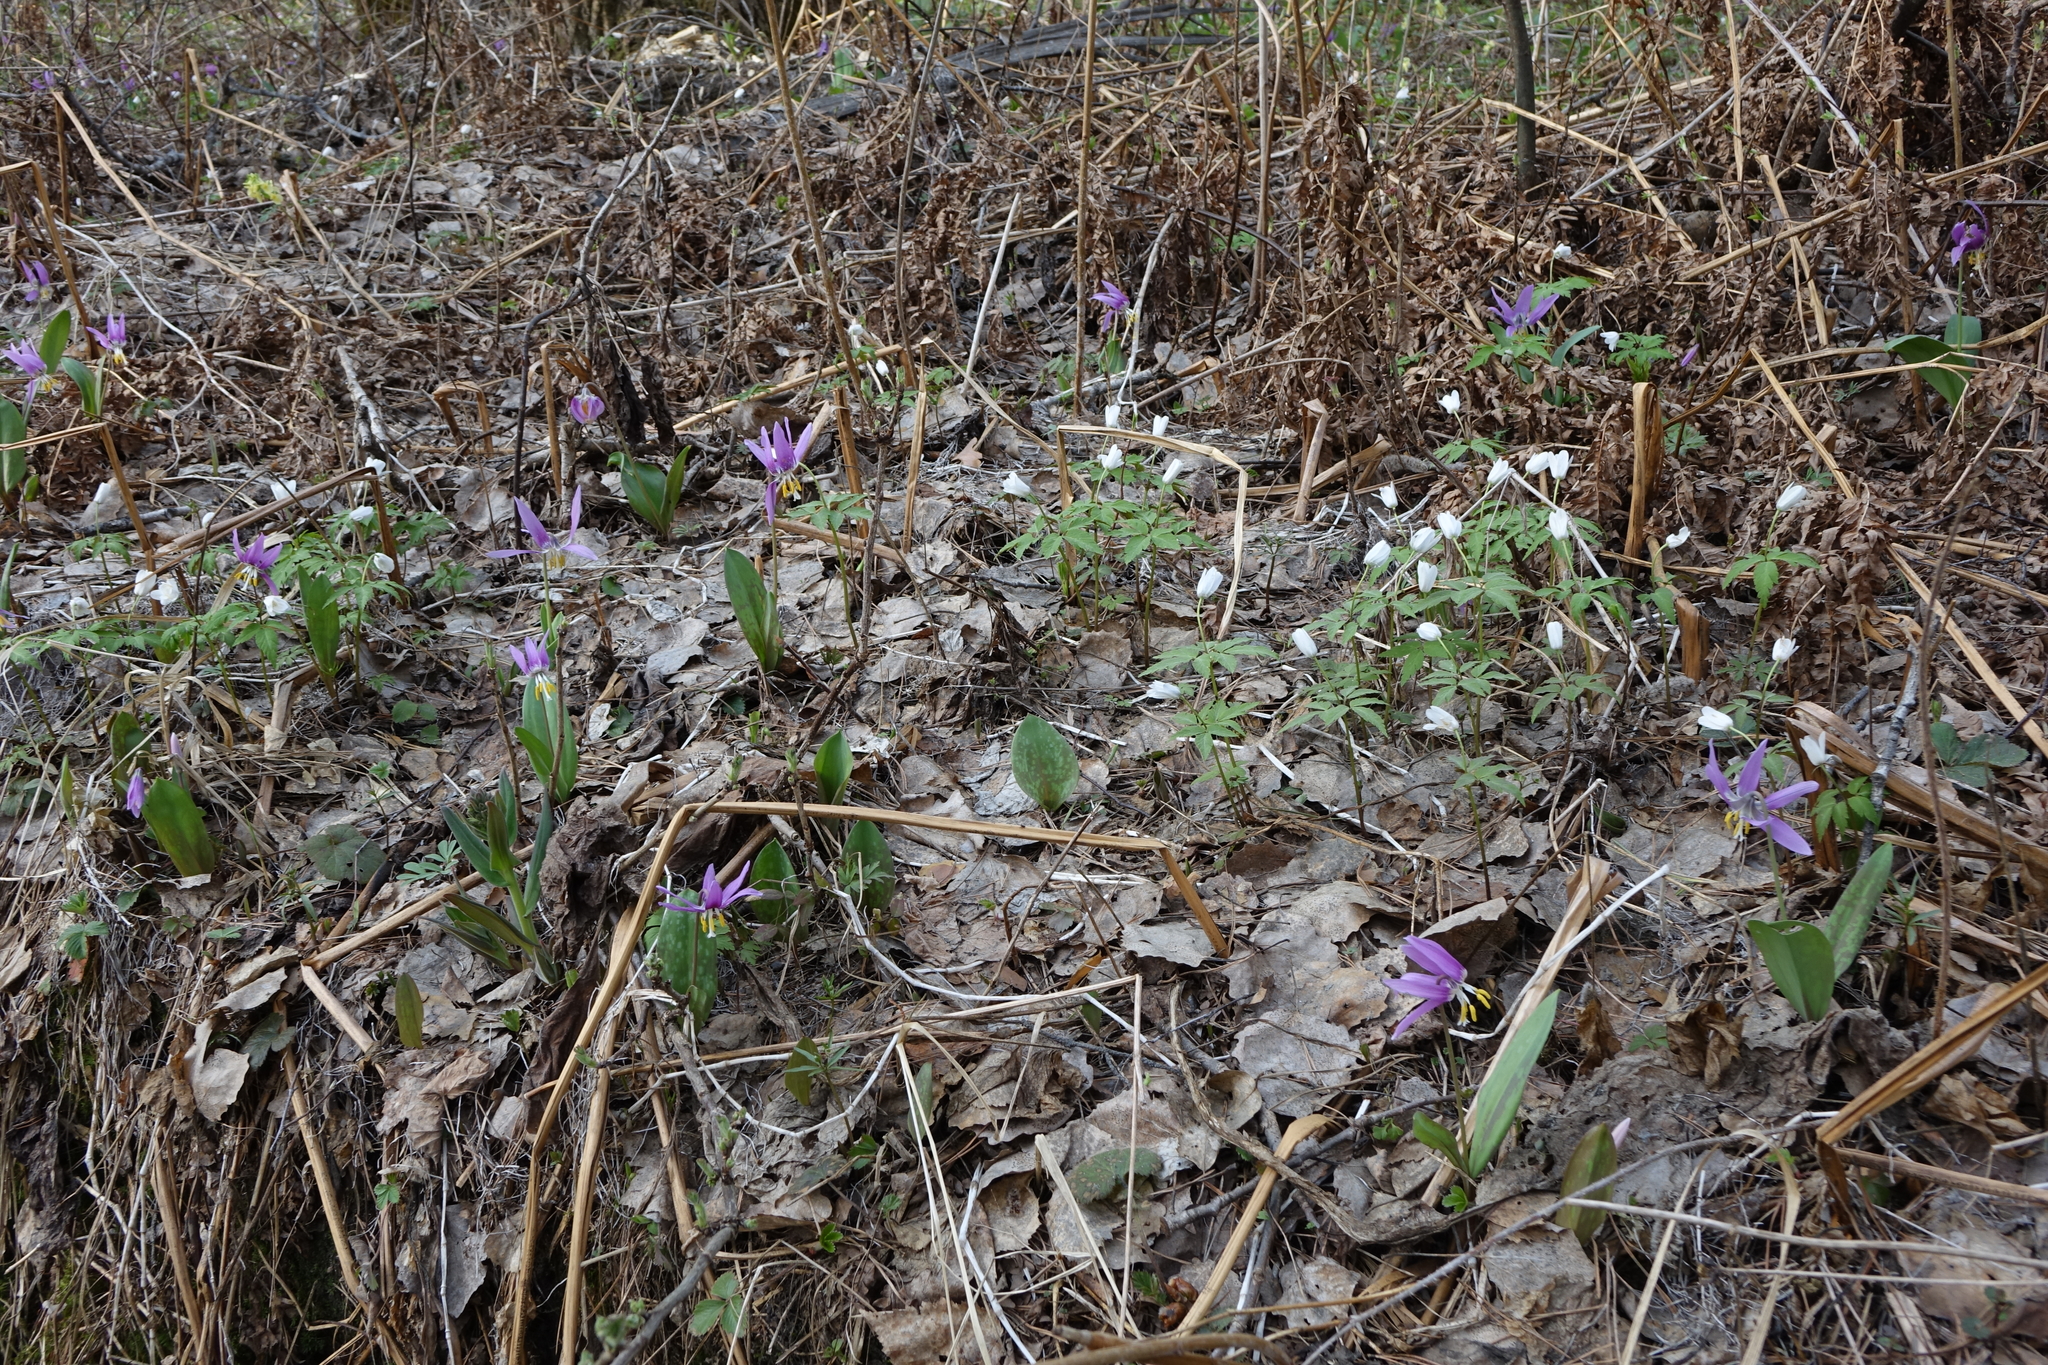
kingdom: Plantae
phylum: Tracheophyta
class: Magnoliopsida
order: Ranunculales
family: Ranunculaceae
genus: Anemone
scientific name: Anemone altaica
